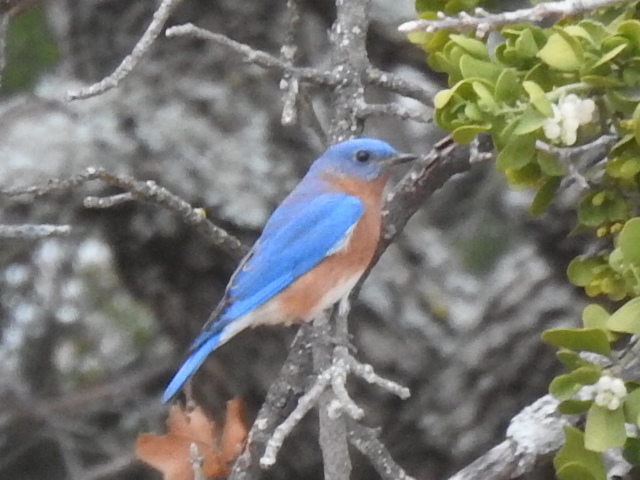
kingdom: Animalia
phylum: Chordata
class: Aves
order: Passeriformes
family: Turdidae
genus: Sialia
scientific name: Sialia sialis
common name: Eastern bluebird
